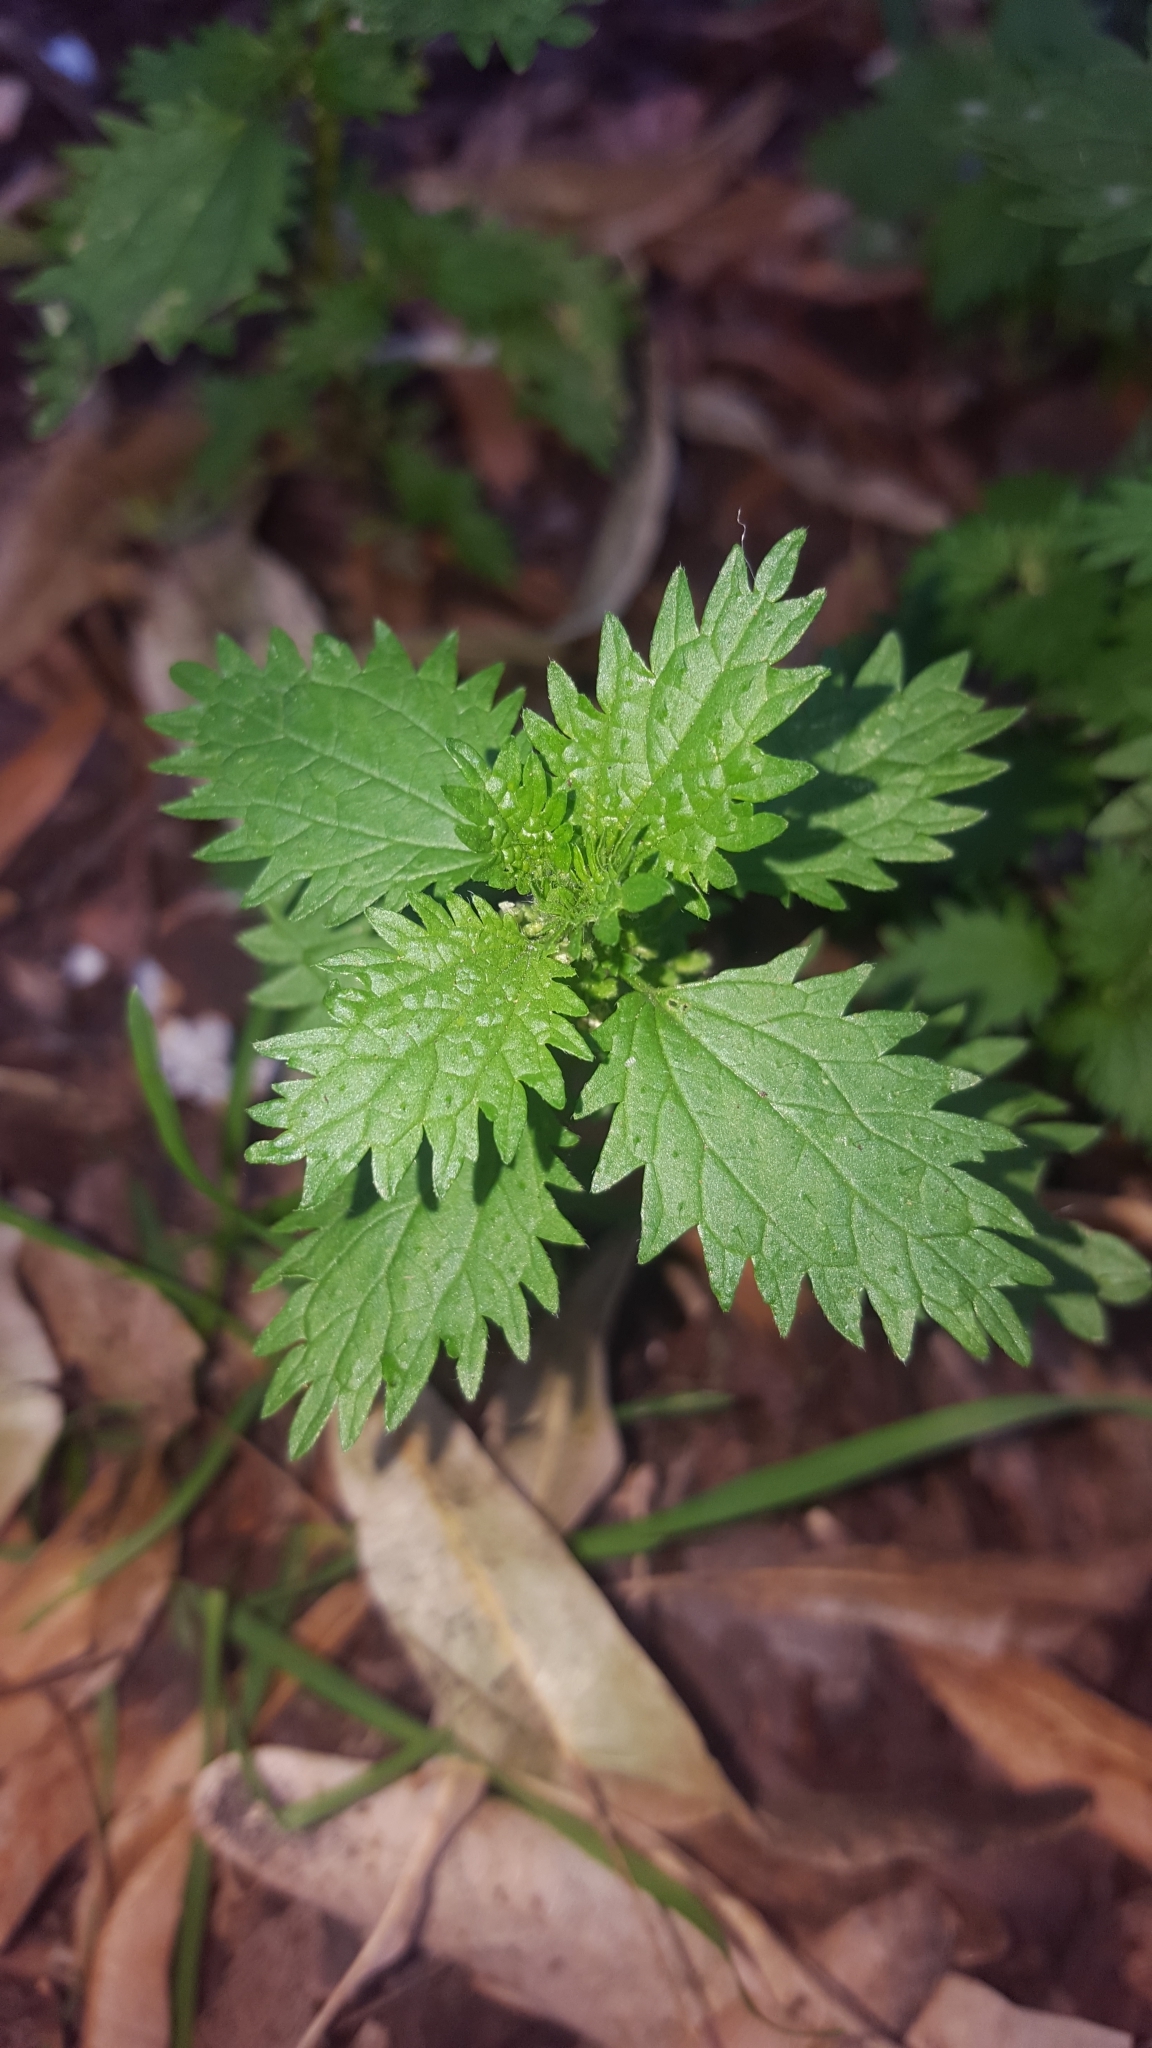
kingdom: Plantae
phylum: Tracheophyta
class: Magnoliopsida
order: Rosales
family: Urticaceae
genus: Urtica
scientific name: Urtica urens
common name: Dwarf nettle
